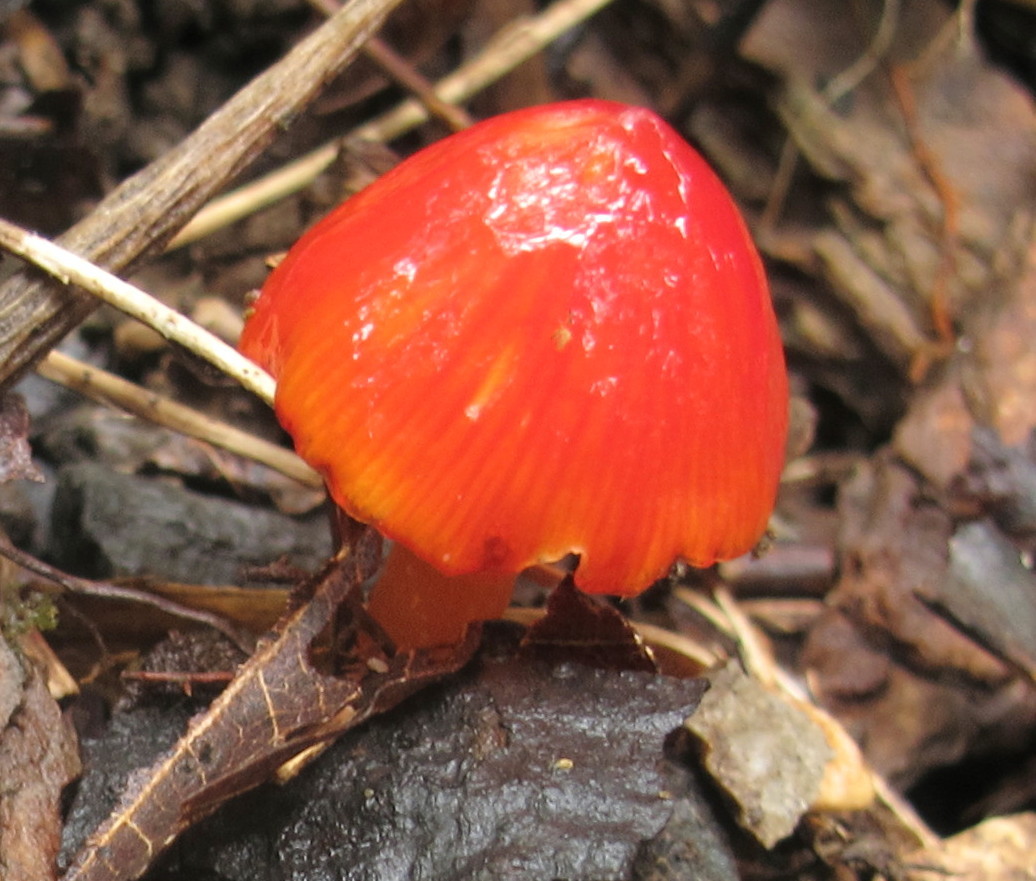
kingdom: Fungi
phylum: Basidiomycota
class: Agaricomycetes
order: Agaricales
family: Hygrophoraceae
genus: Hygrocybe
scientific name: Hygrocybe cuspidata
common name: Candy apple waxy cap
